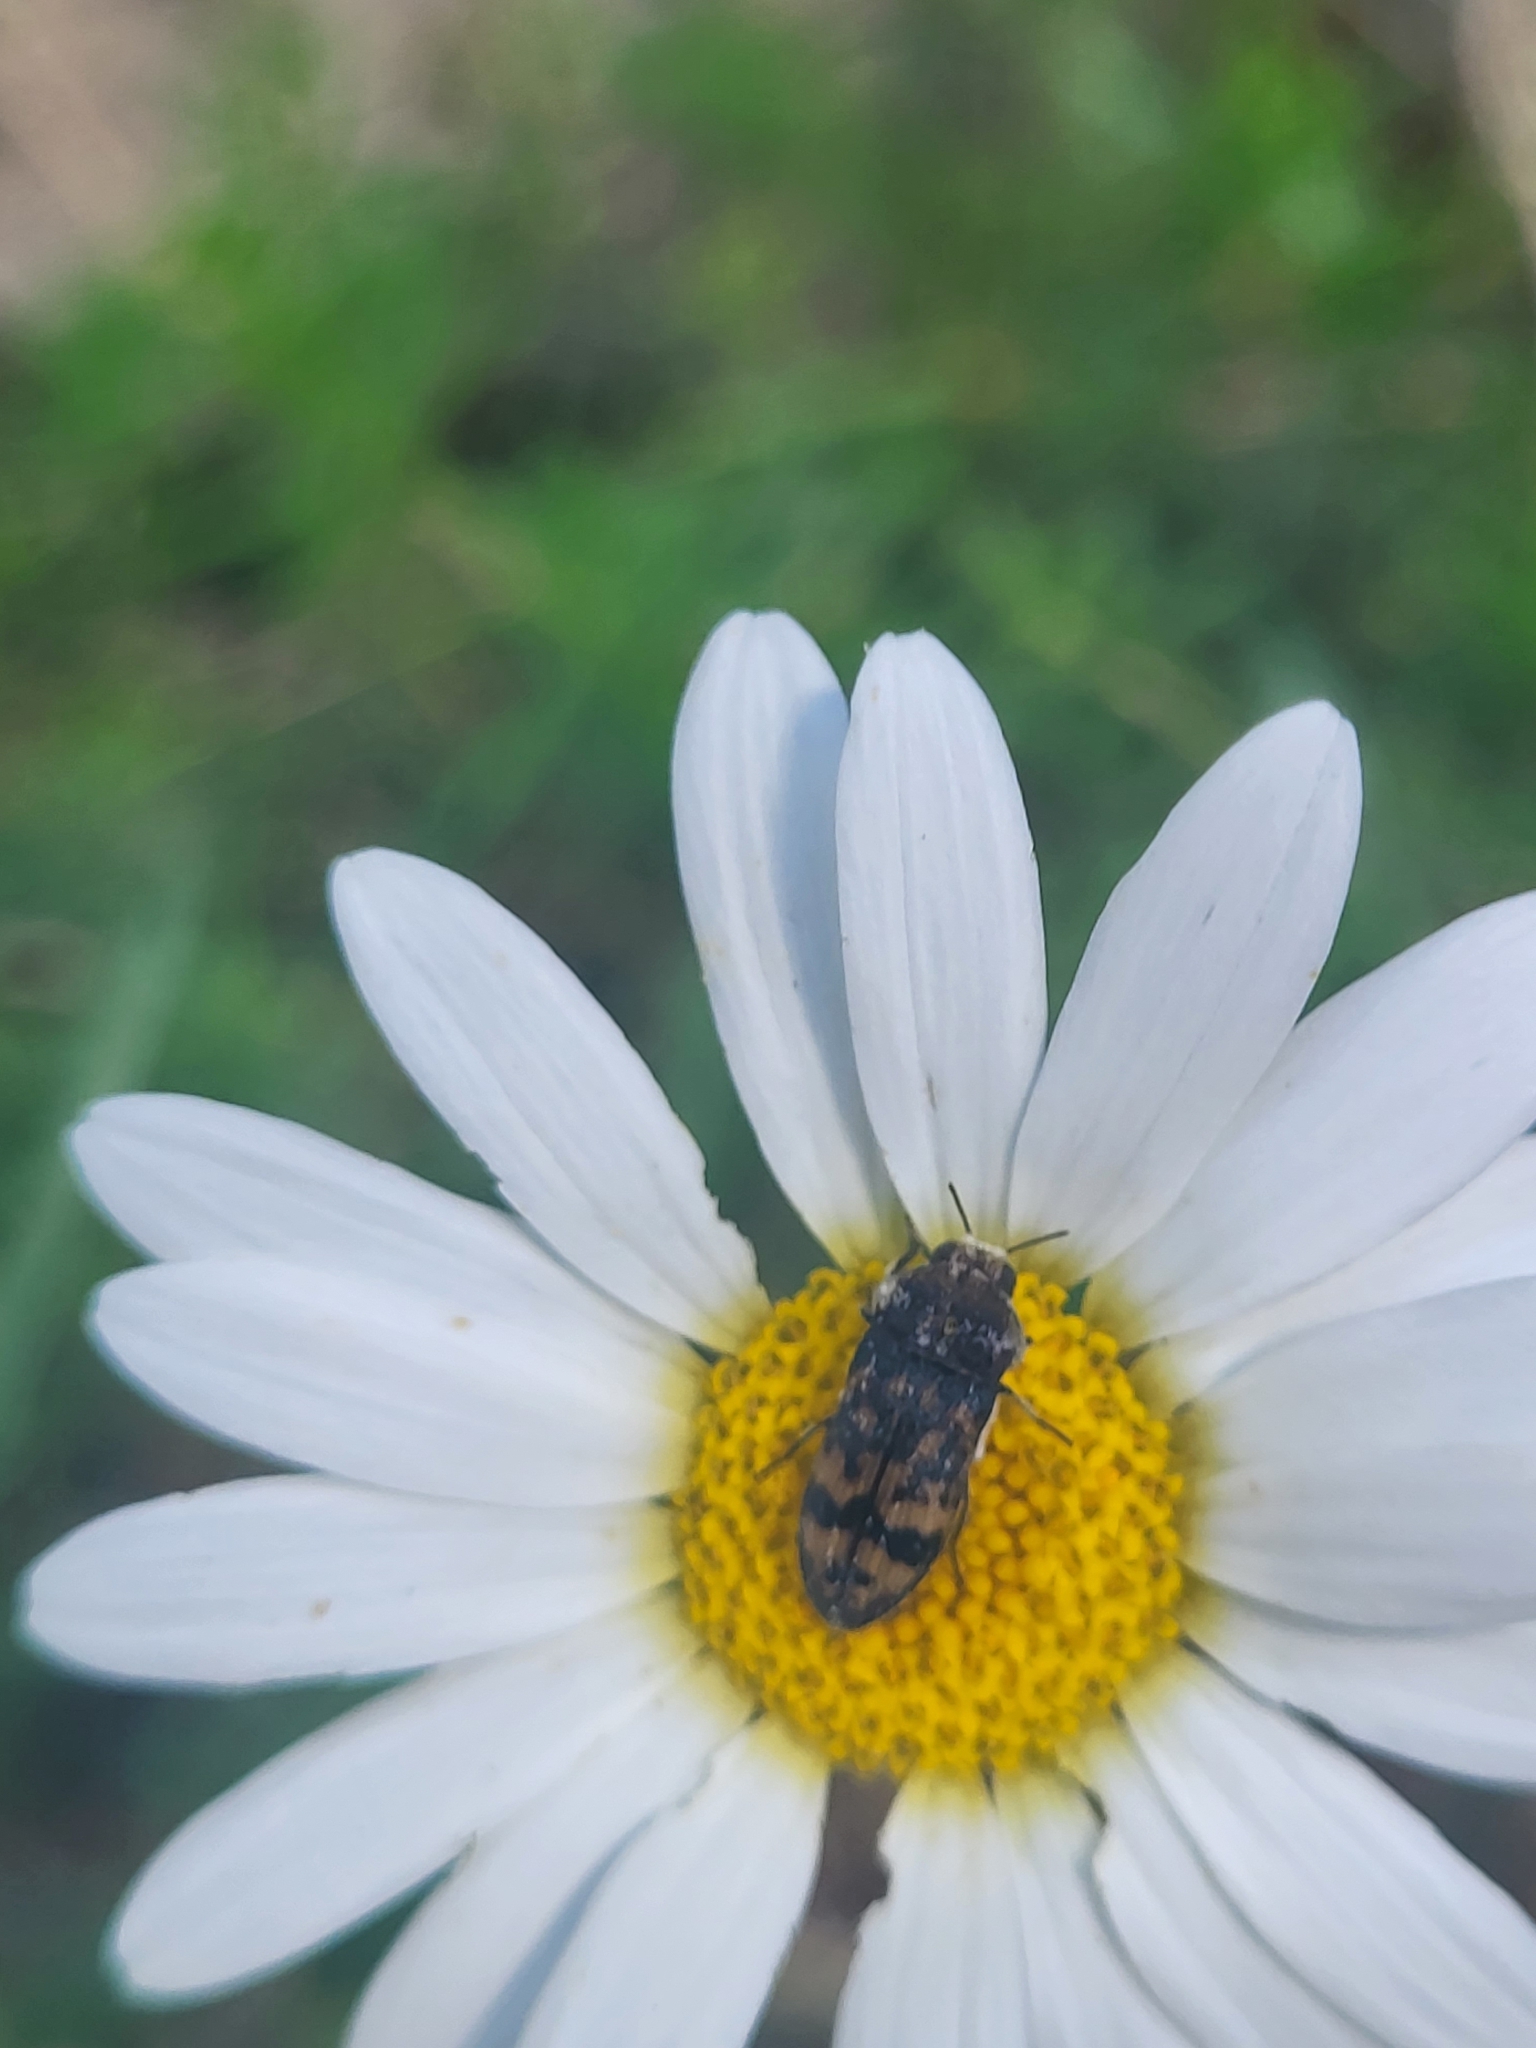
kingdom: Animalia
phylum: Arthropoda
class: Insecta
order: Coleoptera
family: Buprestidae
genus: Acmaeoderella
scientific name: Acmaeoderella flavofasciata
